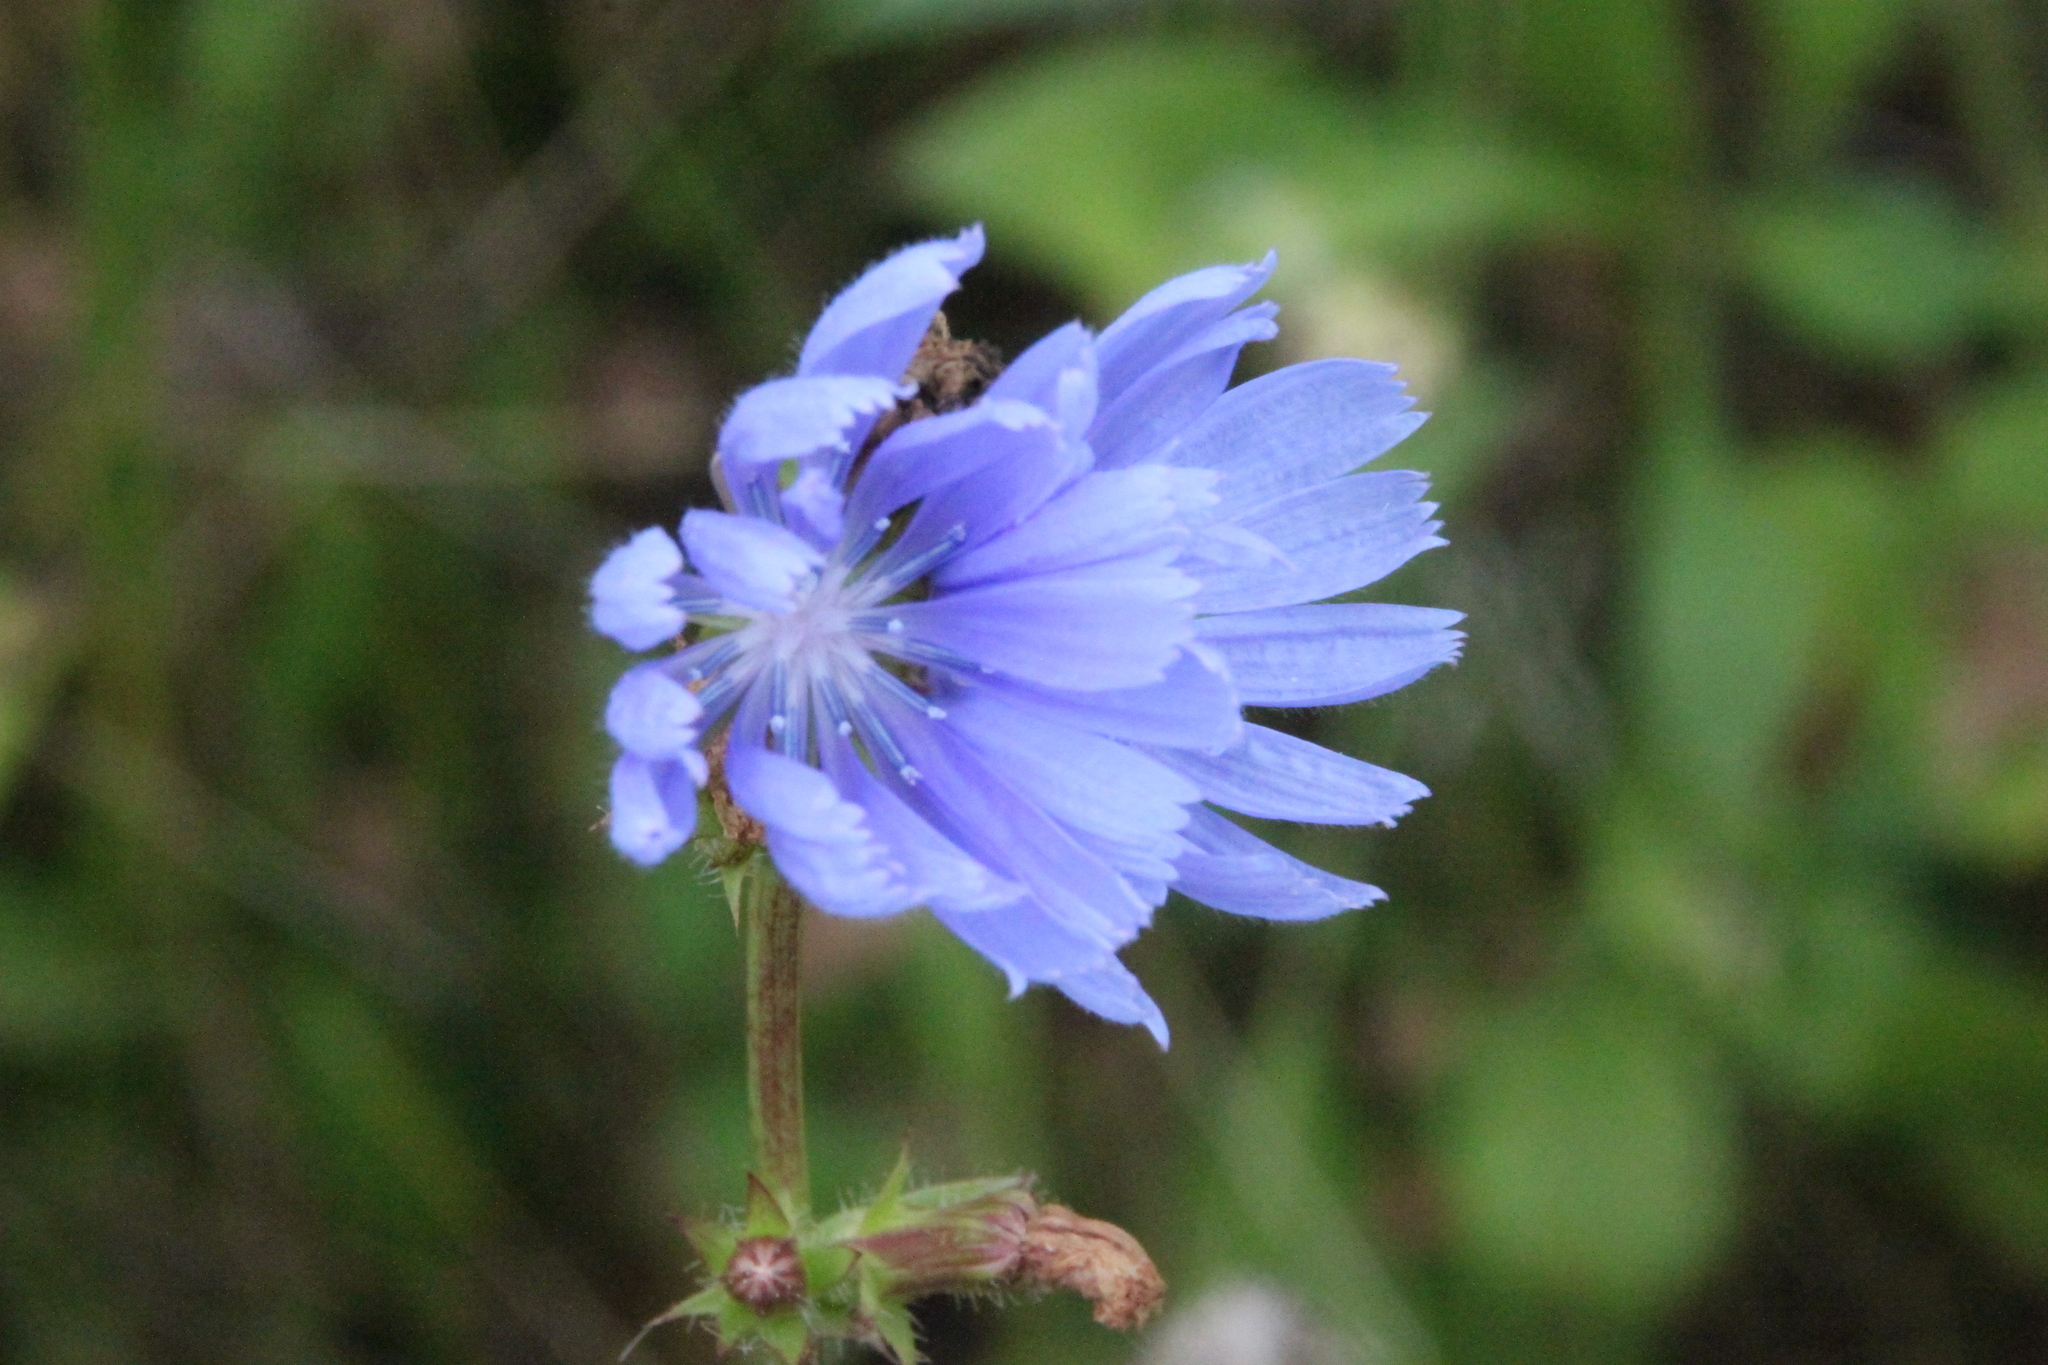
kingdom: Plantae
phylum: Tracheophyta
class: Magnoliopsida
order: Asterales
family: Asteraceae
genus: Cichorium
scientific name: Cichorium intybus
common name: Chicory
